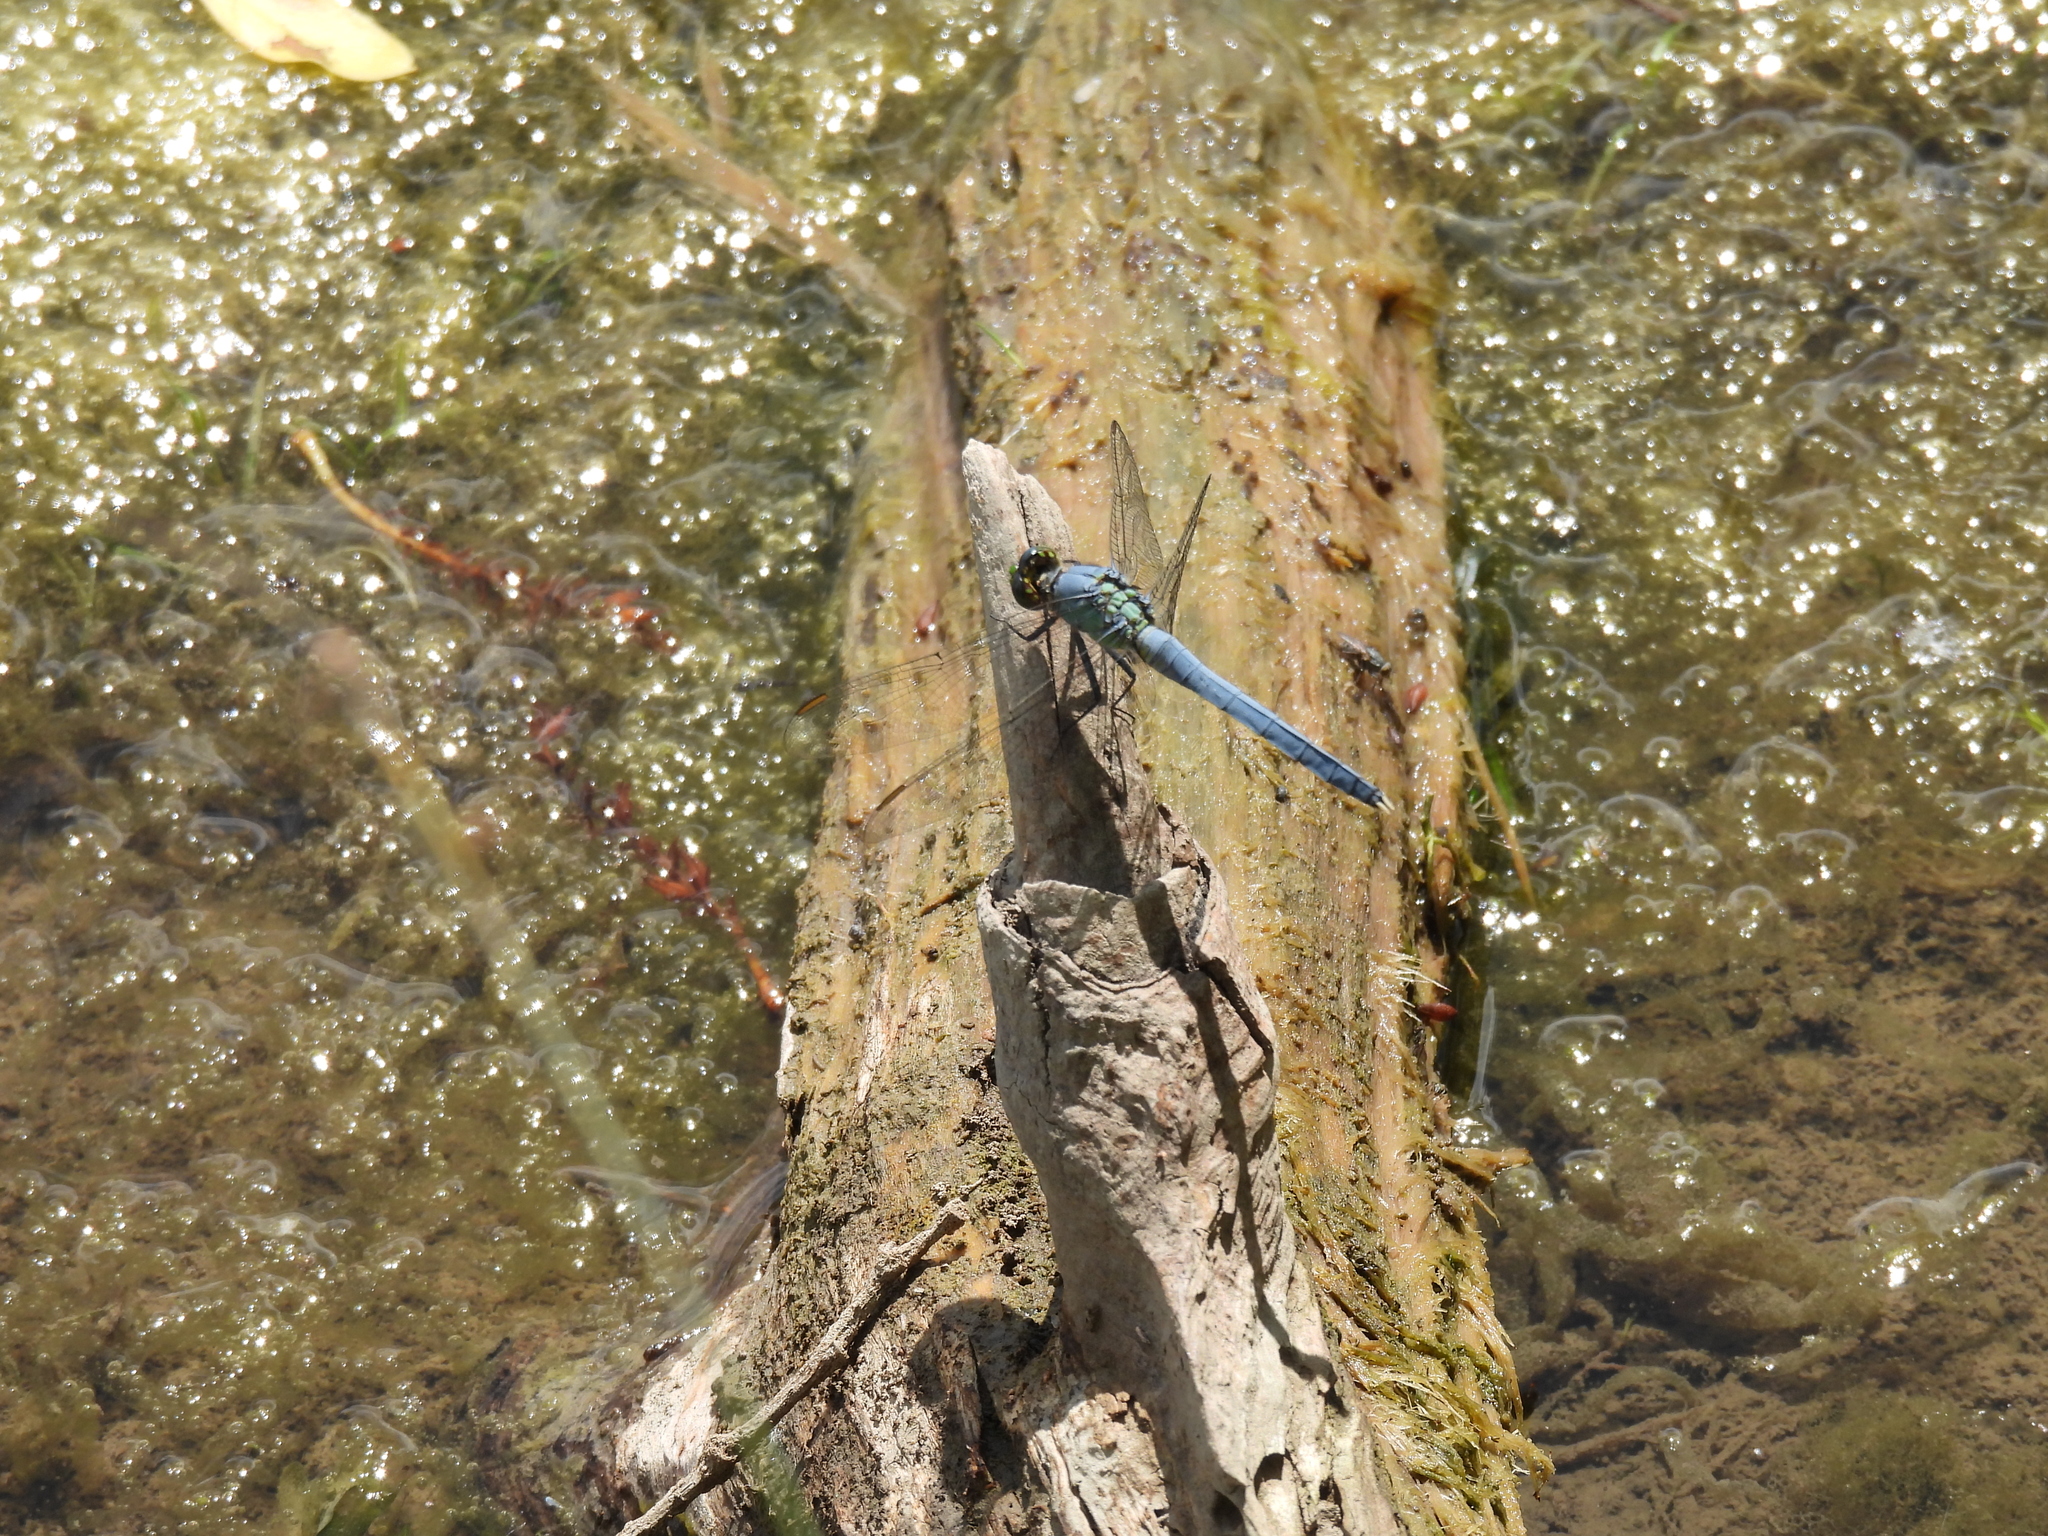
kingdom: Animalia
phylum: Arthropoda
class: Insecta
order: Odonata
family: Libellulidae
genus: Erythemis
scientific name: Erythemis simplicicollis
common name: Eastern pondhawk
